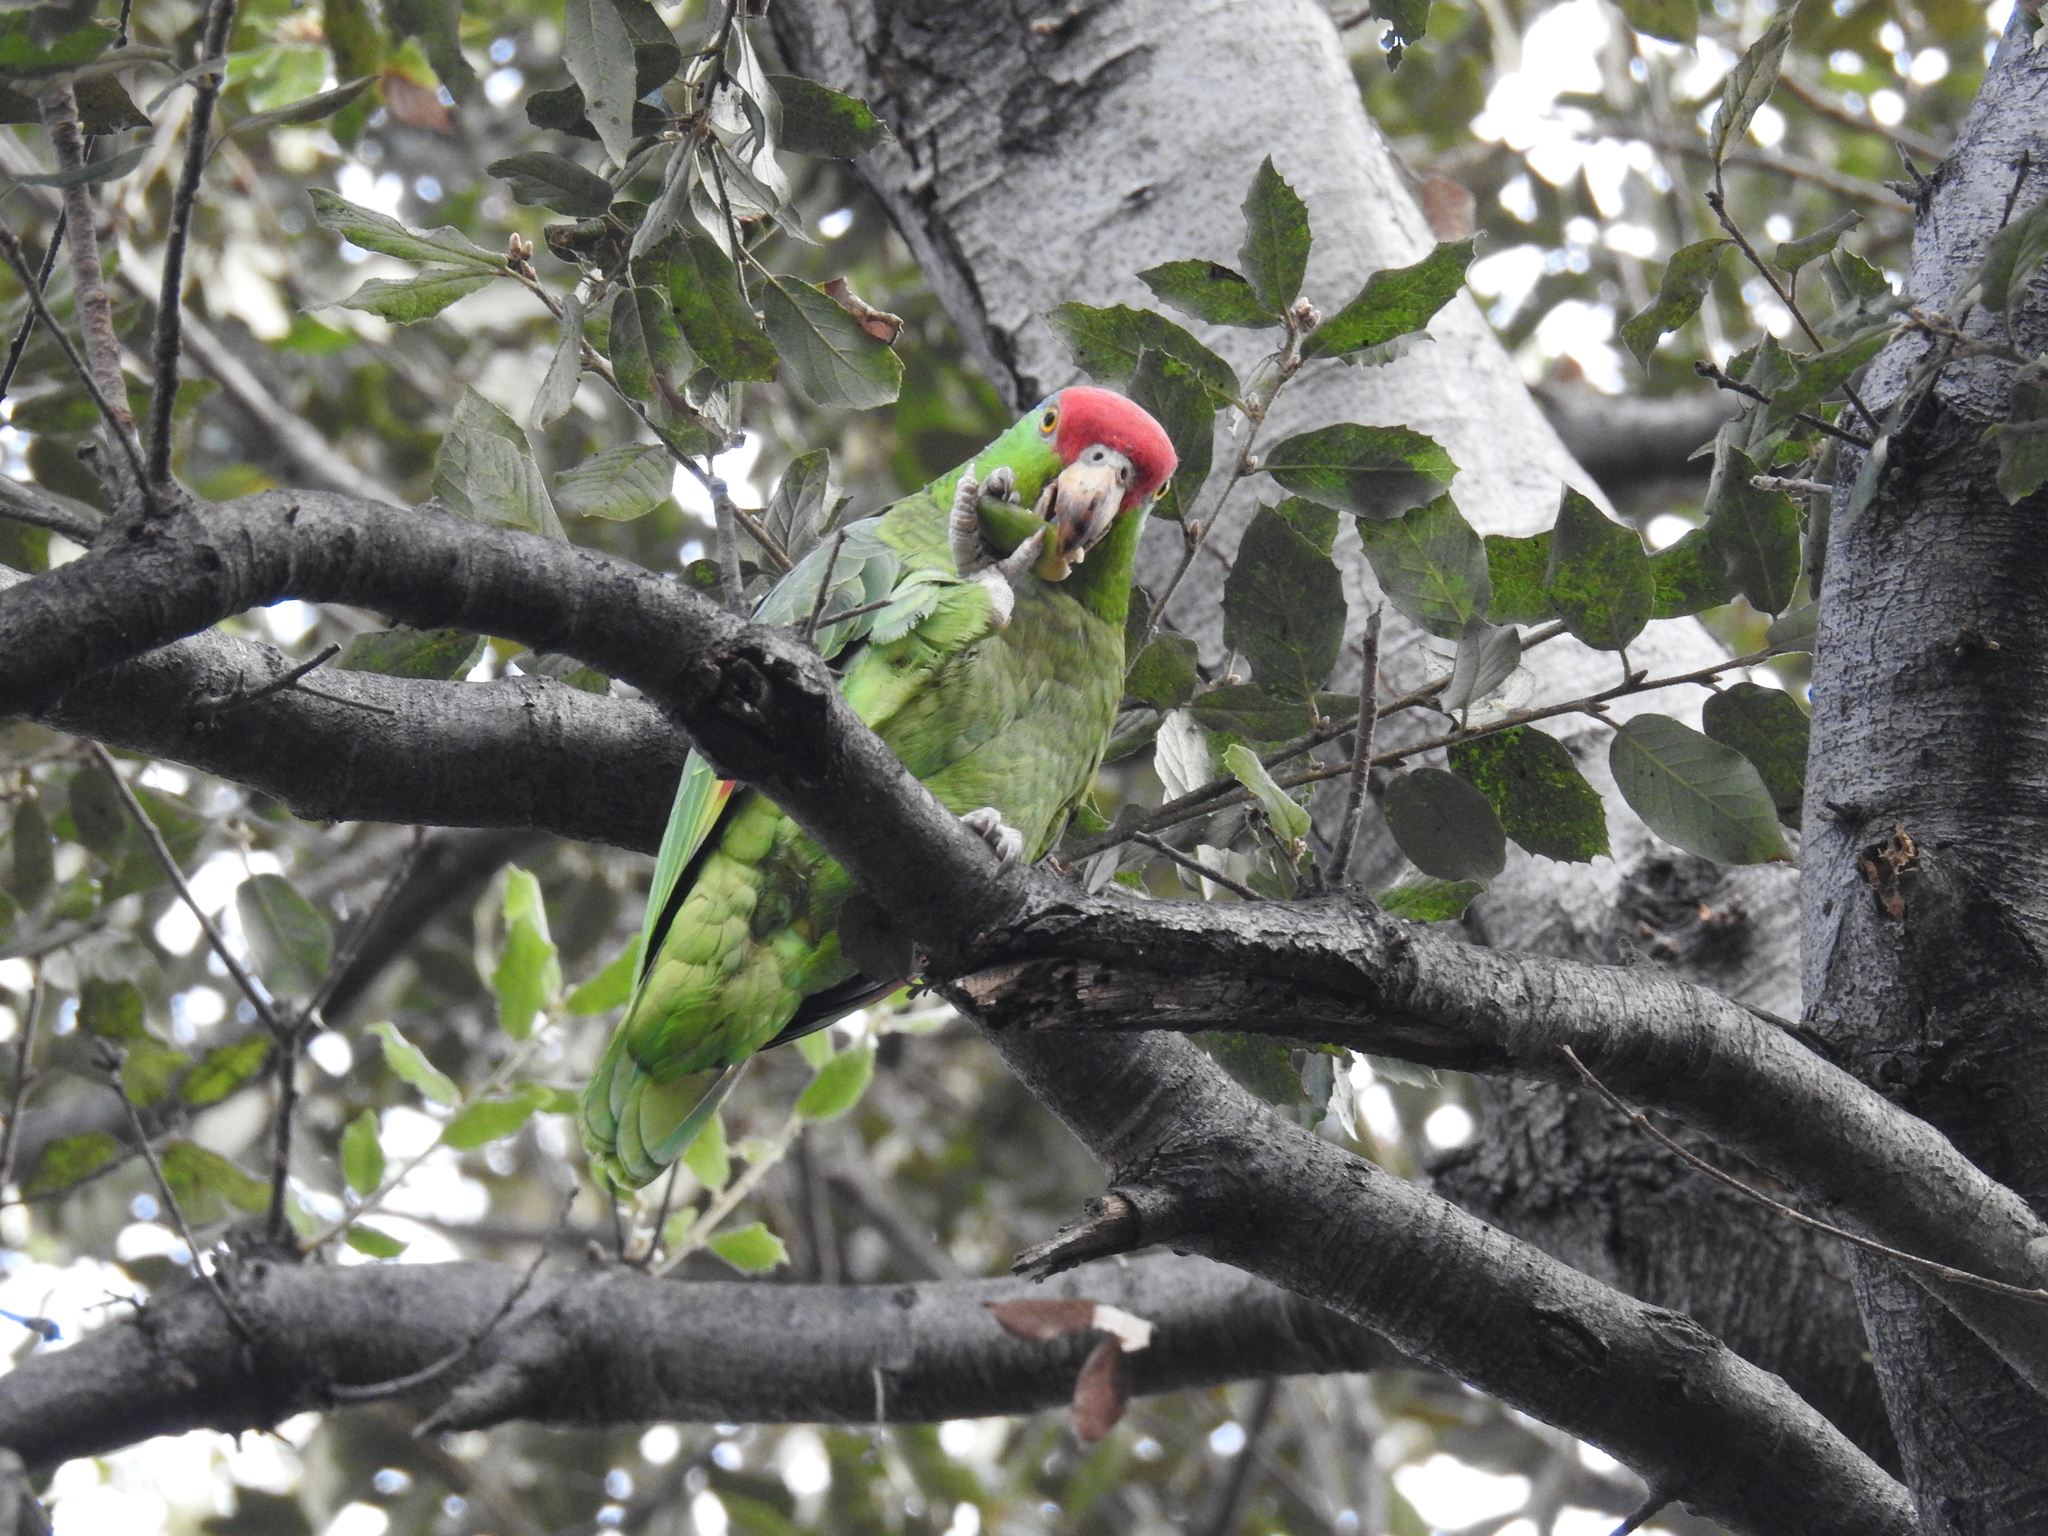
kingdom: Animalia
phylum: Chordata
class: Aves
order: Psittaciformes
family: Psittacidae
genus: Amazona
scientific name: Amazona viridigenalis
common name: Red-crowned amazon
